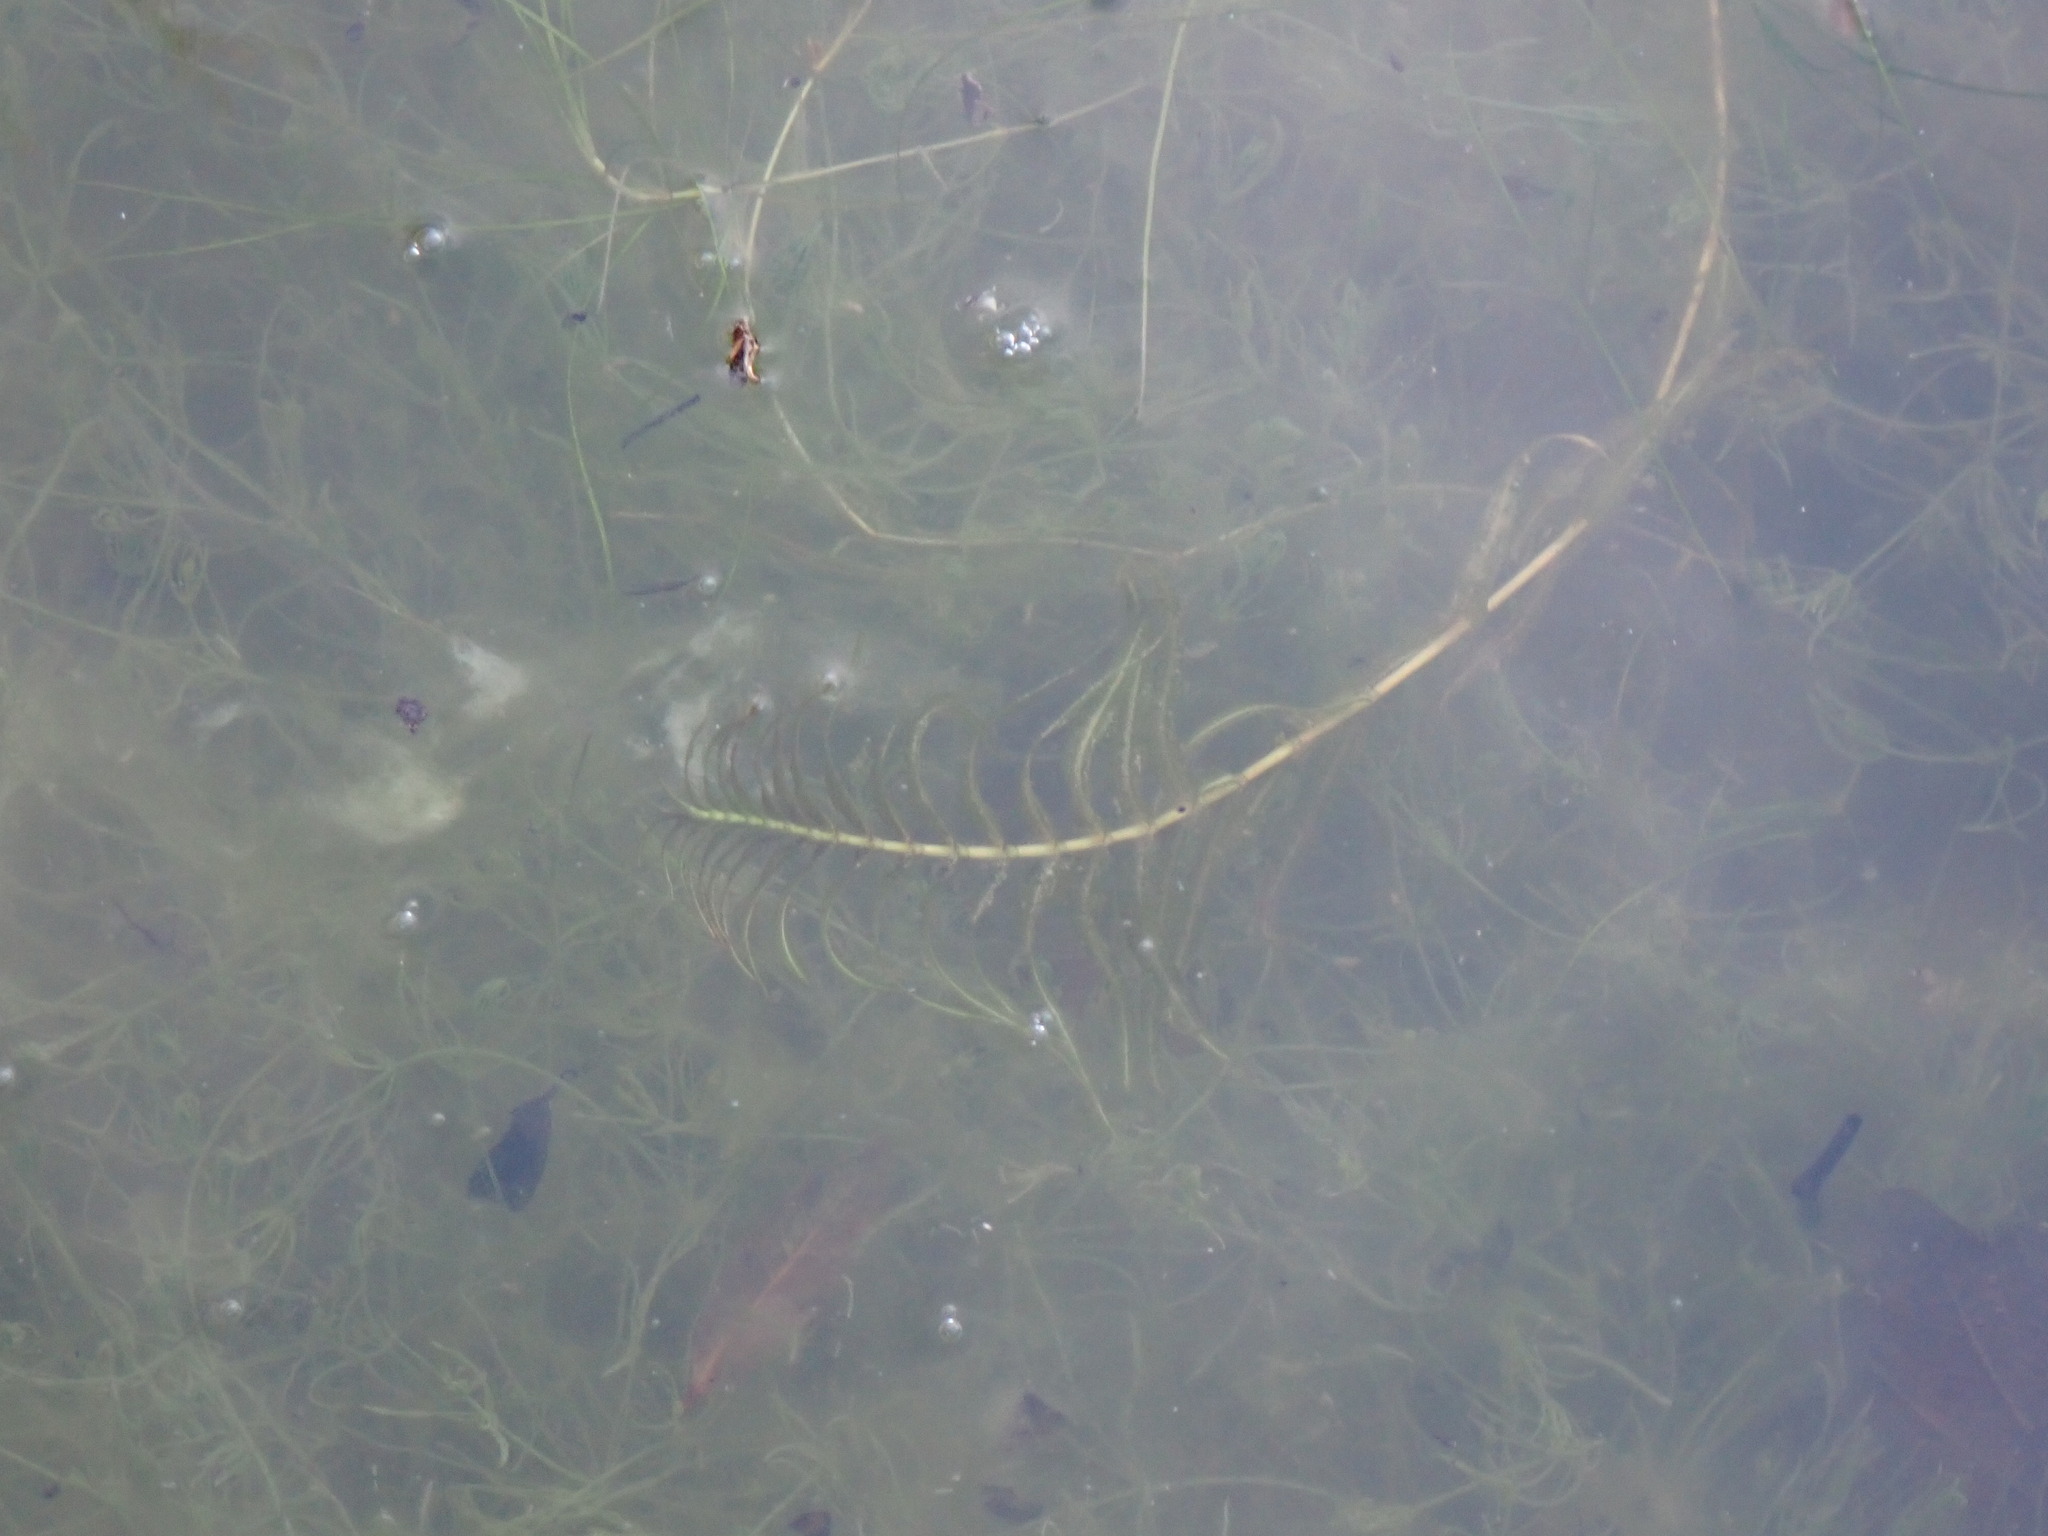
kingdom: Plantae
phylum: Tracheophyta
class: Liliopsida
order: Alismatales
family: Potamogetonaceae
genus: Groenlandia
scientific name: Groenlandia densa
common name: Opposite-leaved pondweed
